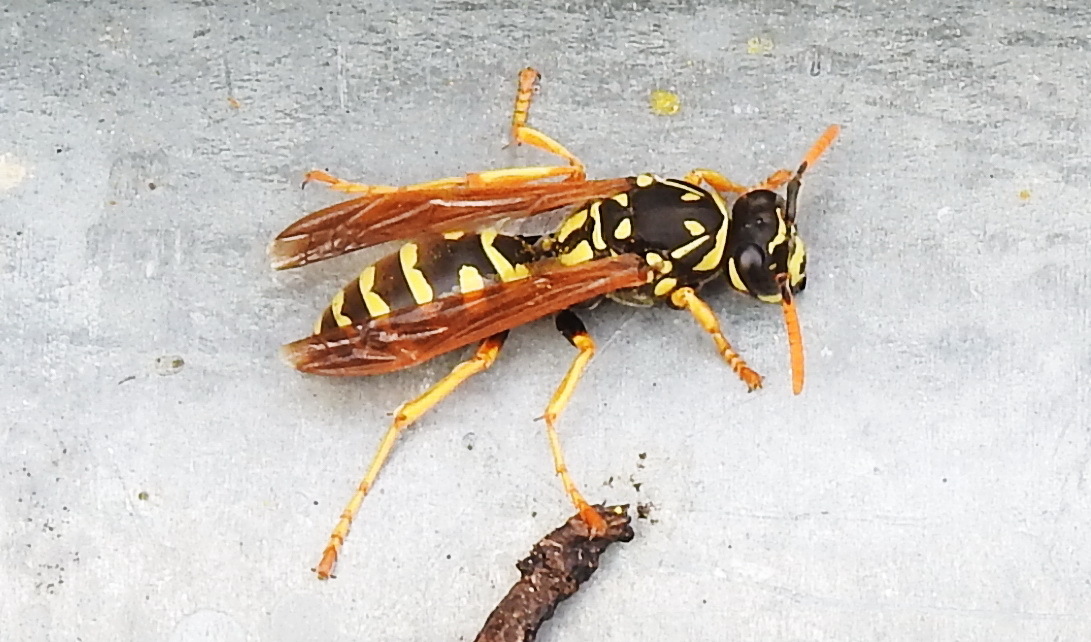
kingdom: Animalia
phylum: Arthropoda
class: Insecta
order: Hymenoptera
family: Eumenidae
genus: Polistes
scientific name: Polistes dominula
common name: Paper wasp
